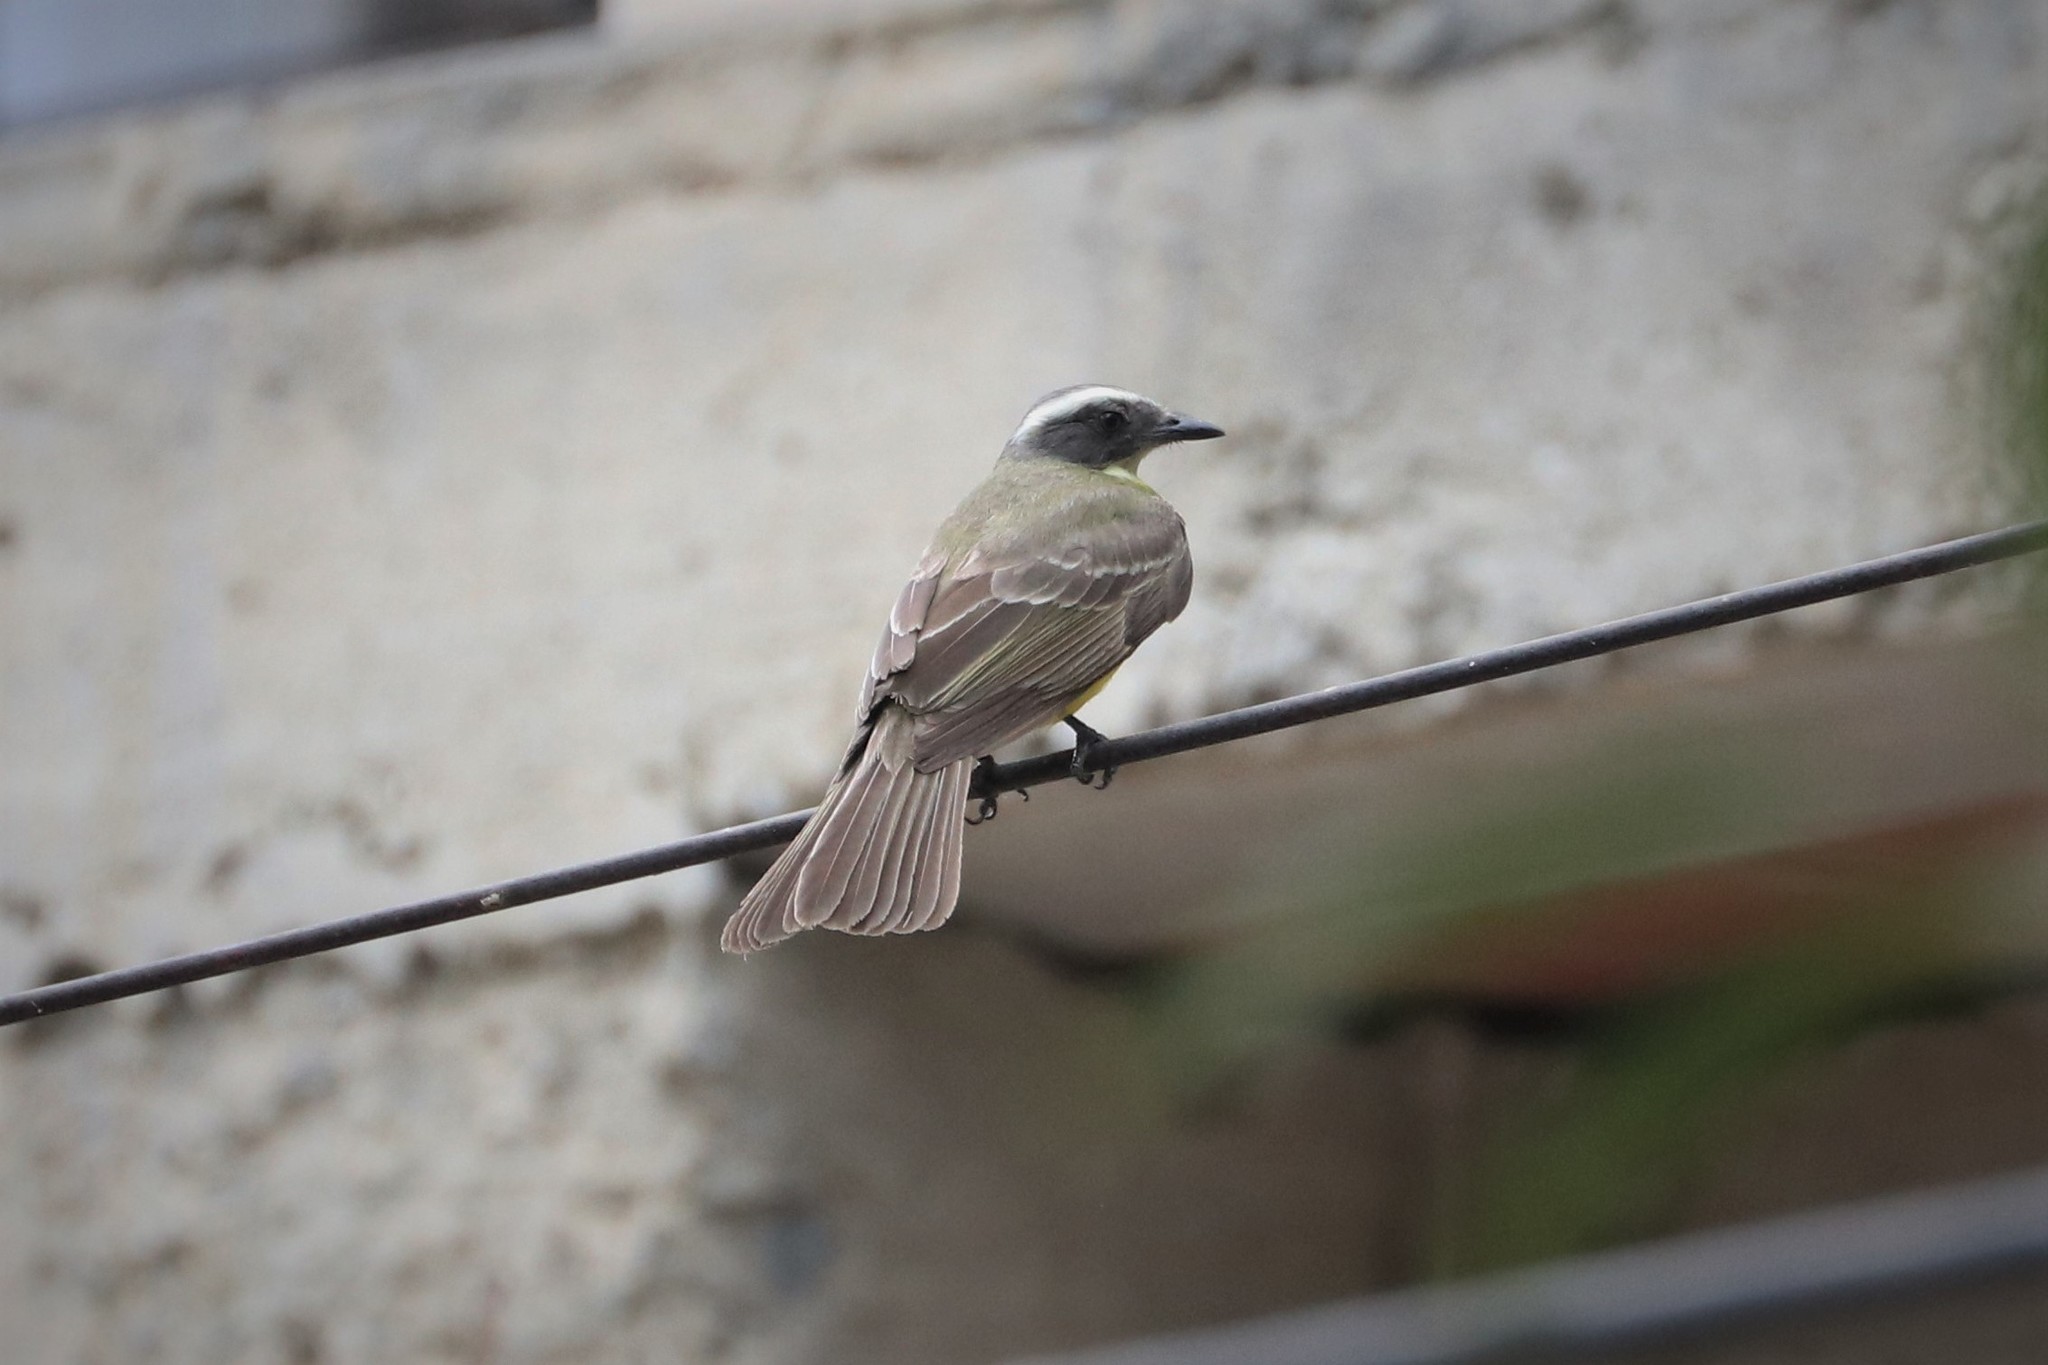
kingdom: Animalia
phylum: Chordata
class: Aves
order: Passeriformes
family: Tyrannidae
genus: Myiozetetes
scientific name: Myiozetetes similis
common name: Social flycatcher
